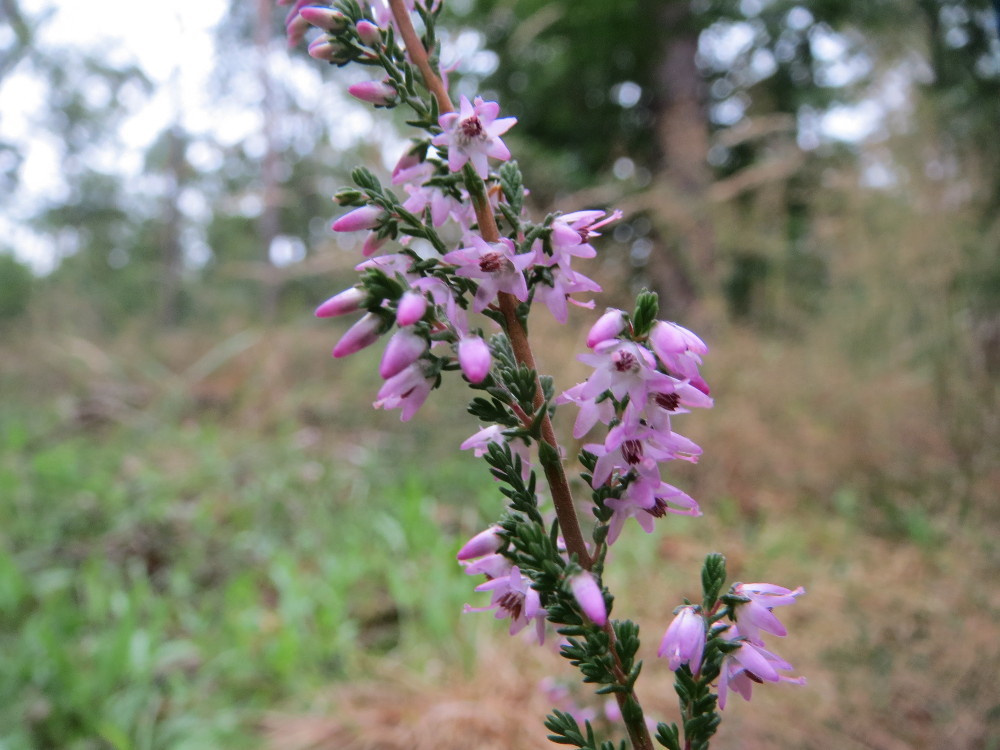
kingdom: Plantae
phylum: Tracheophyta
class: Magnoliopsida
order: Ericales
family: Ericaceae
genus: Calluna
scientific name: Calluna vulgaris
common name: Heather
